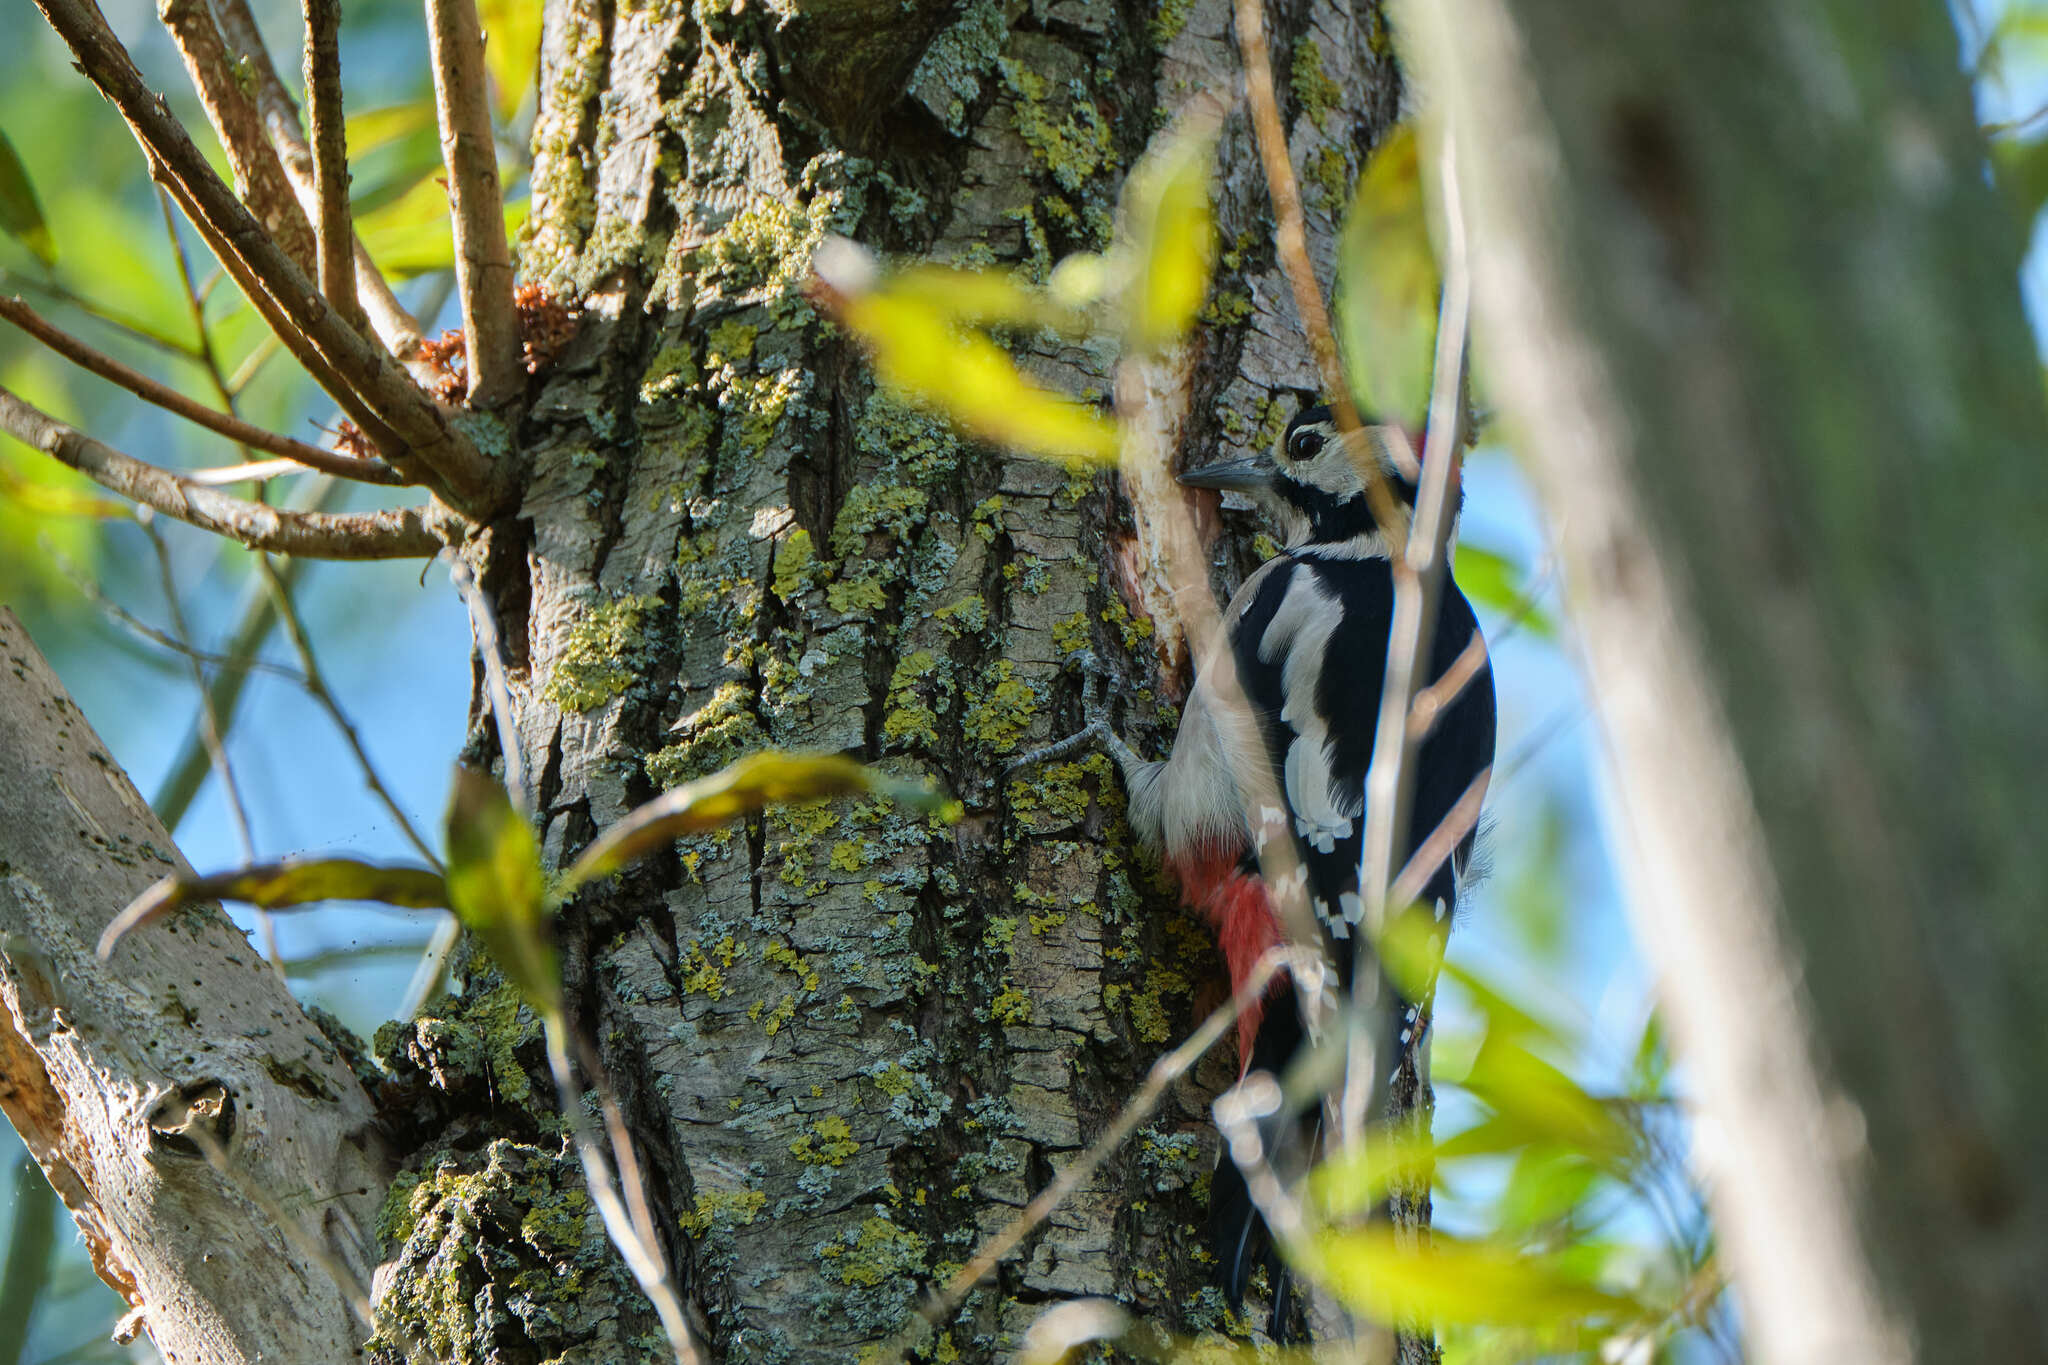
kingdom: Animalia
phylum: Chordata
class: Aves
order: Piciformes
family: Picidae
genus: Dendrocopos
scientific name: Dendrocopos major
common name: Great spotted woodpecker
